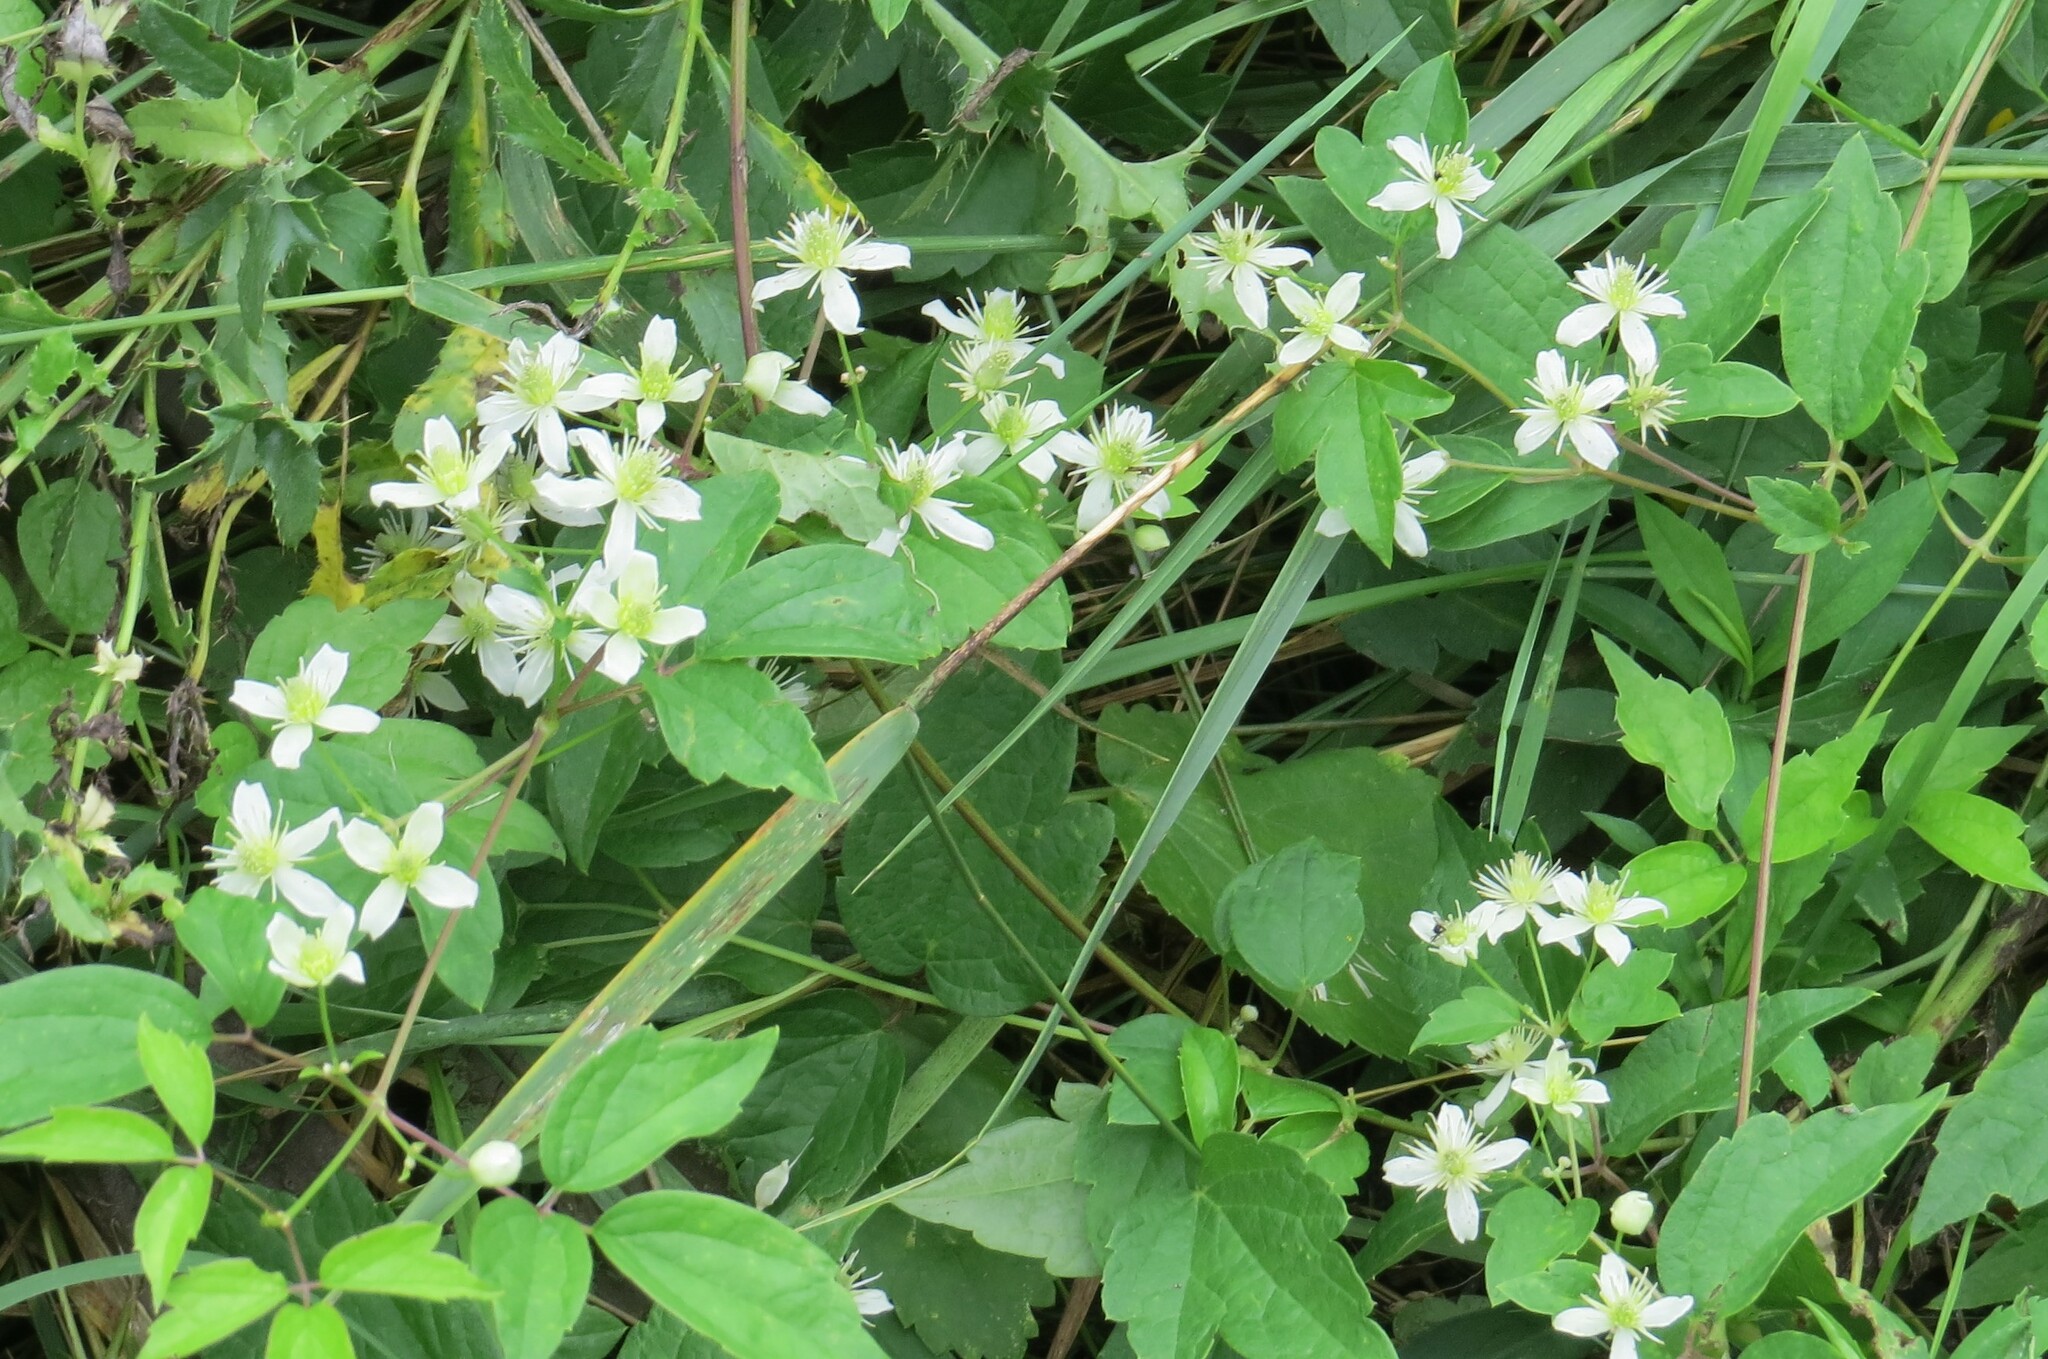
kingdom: Plantae
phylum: Tracheophyta
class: Magnoliopsida
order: Ranunculales
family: Ranunculaceae
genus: Clematis
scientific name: Clematis virginiana
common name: Virgin's-bower
